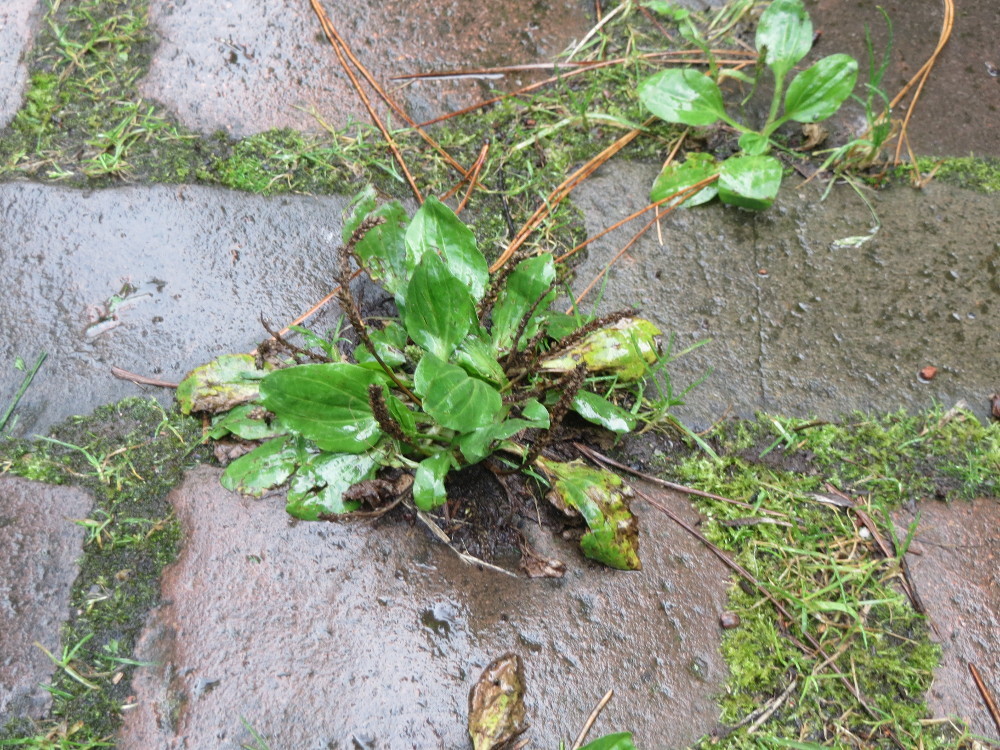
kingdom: Plantae
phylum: Tracheophyta
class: Magnoliopsida
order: Lamiales
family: Plantaginaceae
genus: Plantago
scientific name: Plantago major
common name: Common plantain
